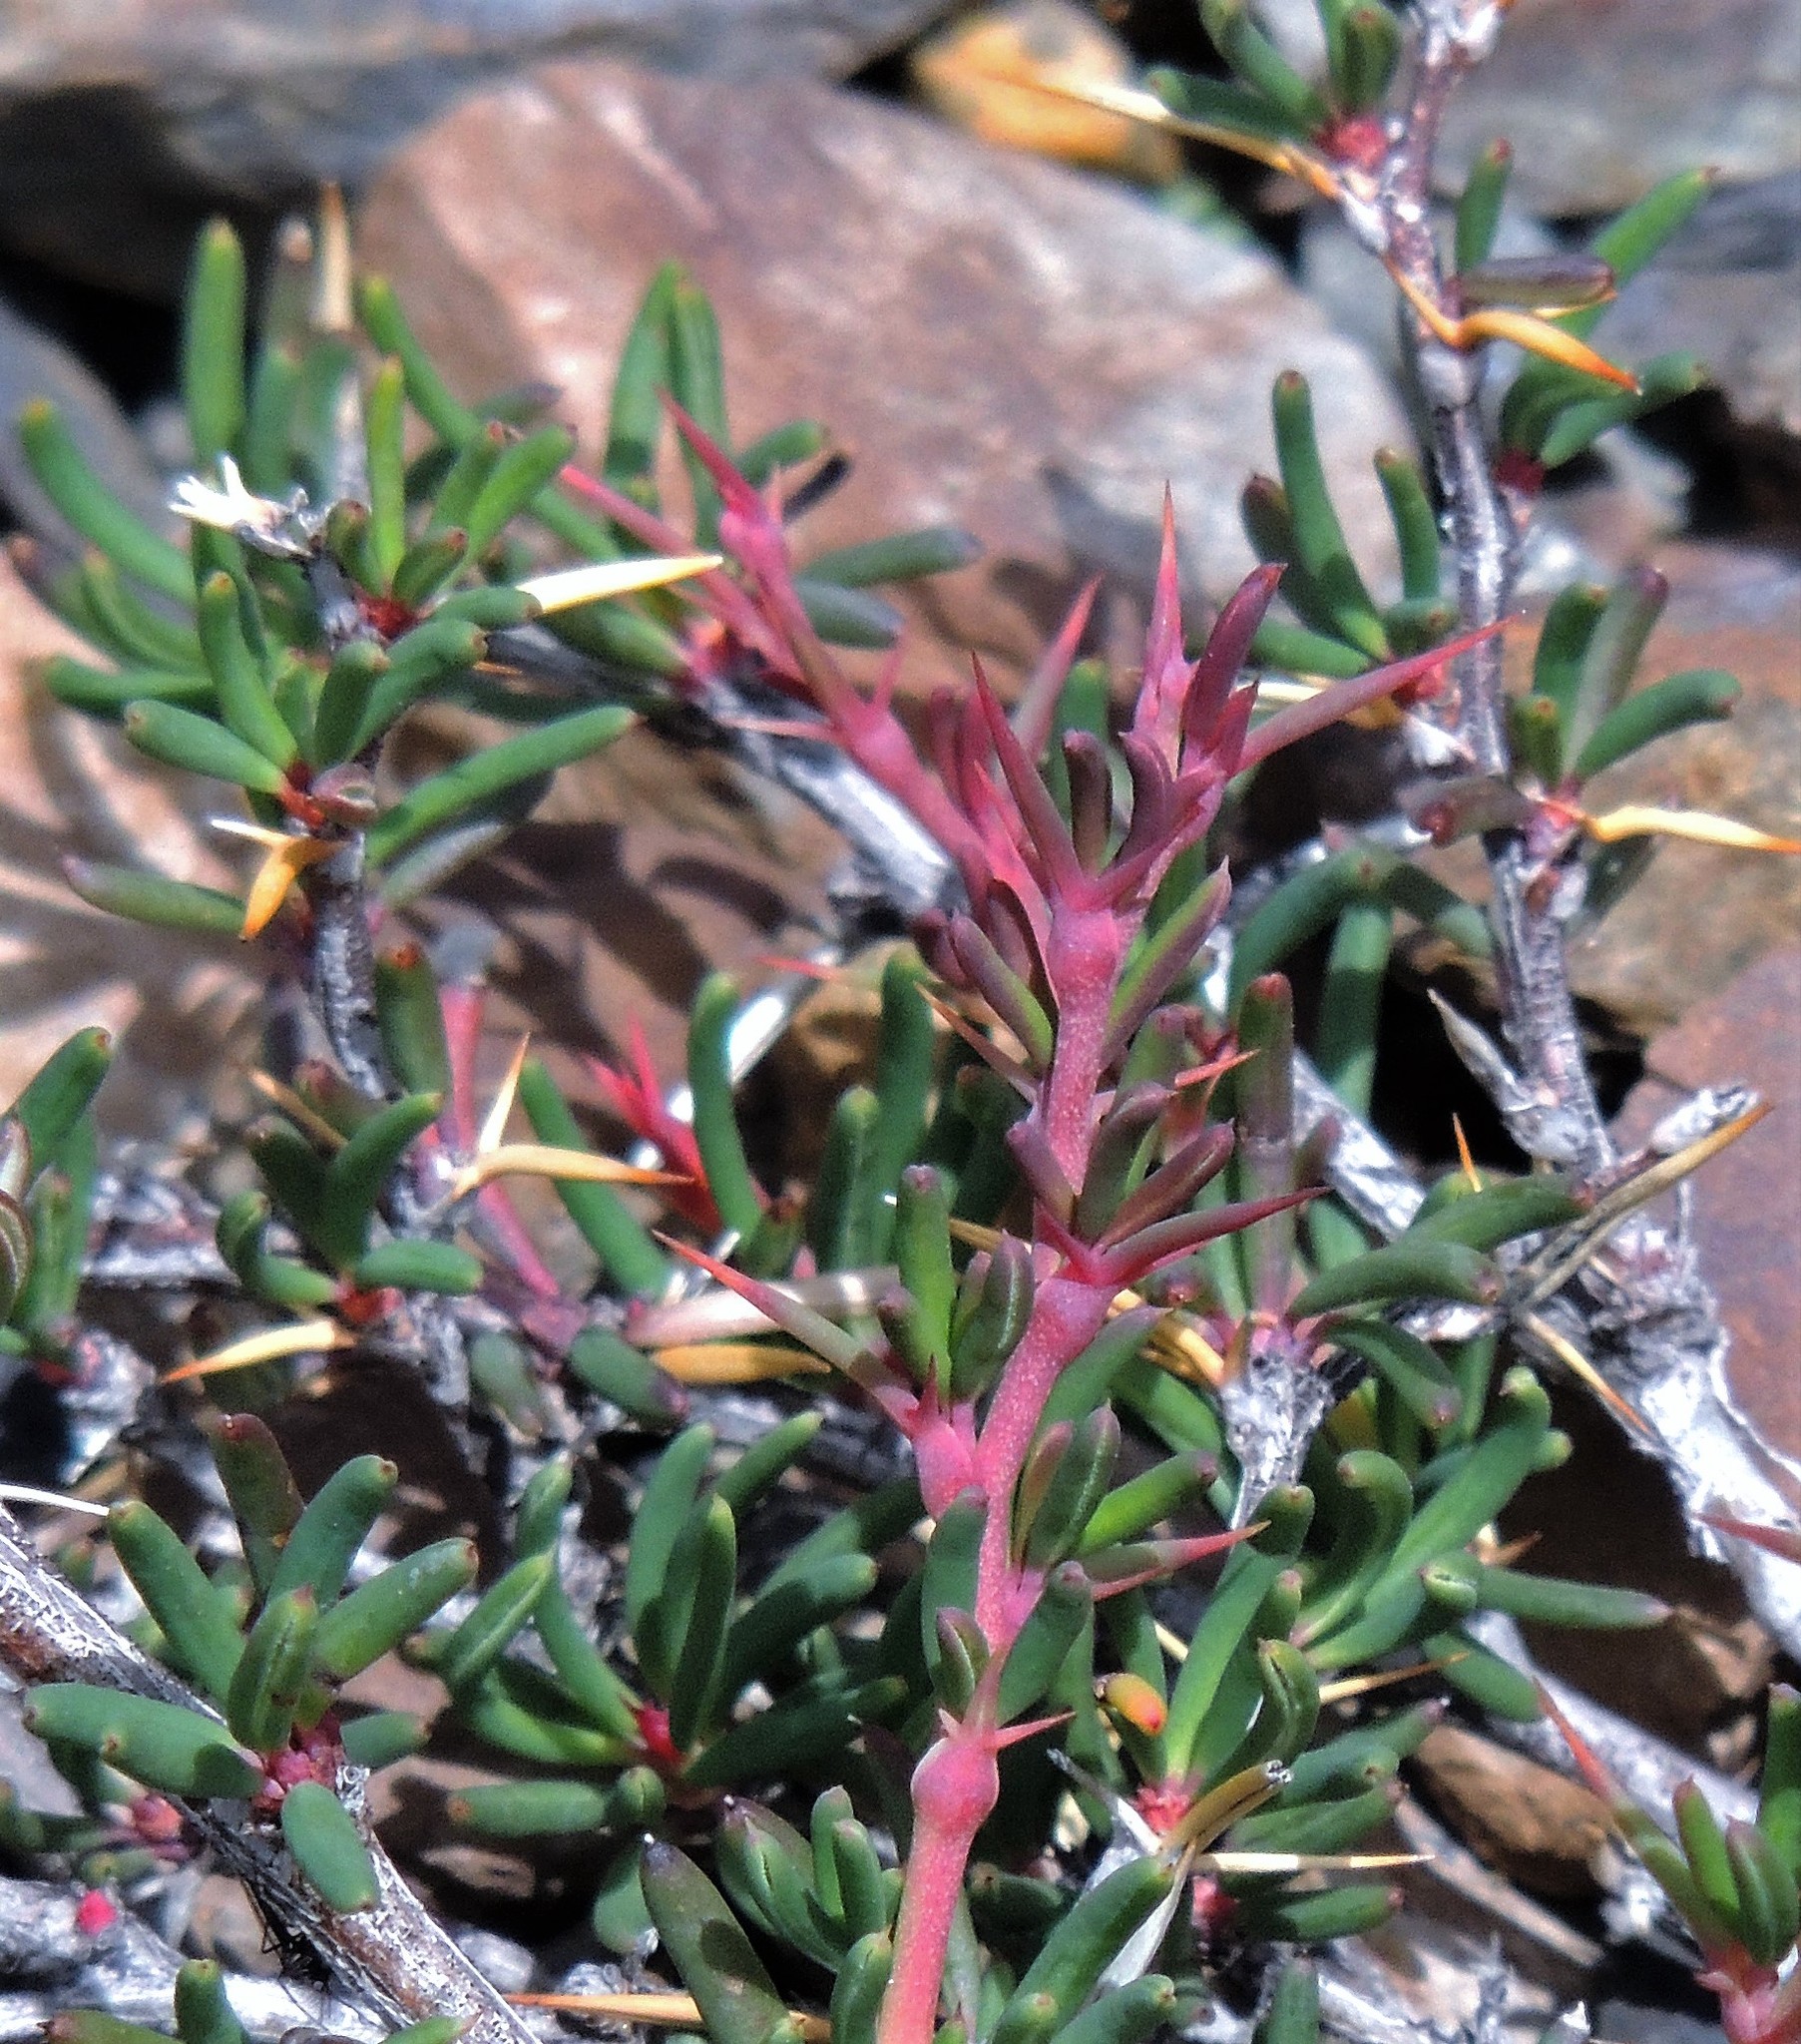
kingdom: Plantae
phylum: Tracheophyta
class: Magnoliopsida
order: Ranunculales
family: Berberidaceae
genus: Berberis
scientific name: Berberis empetrifolia
